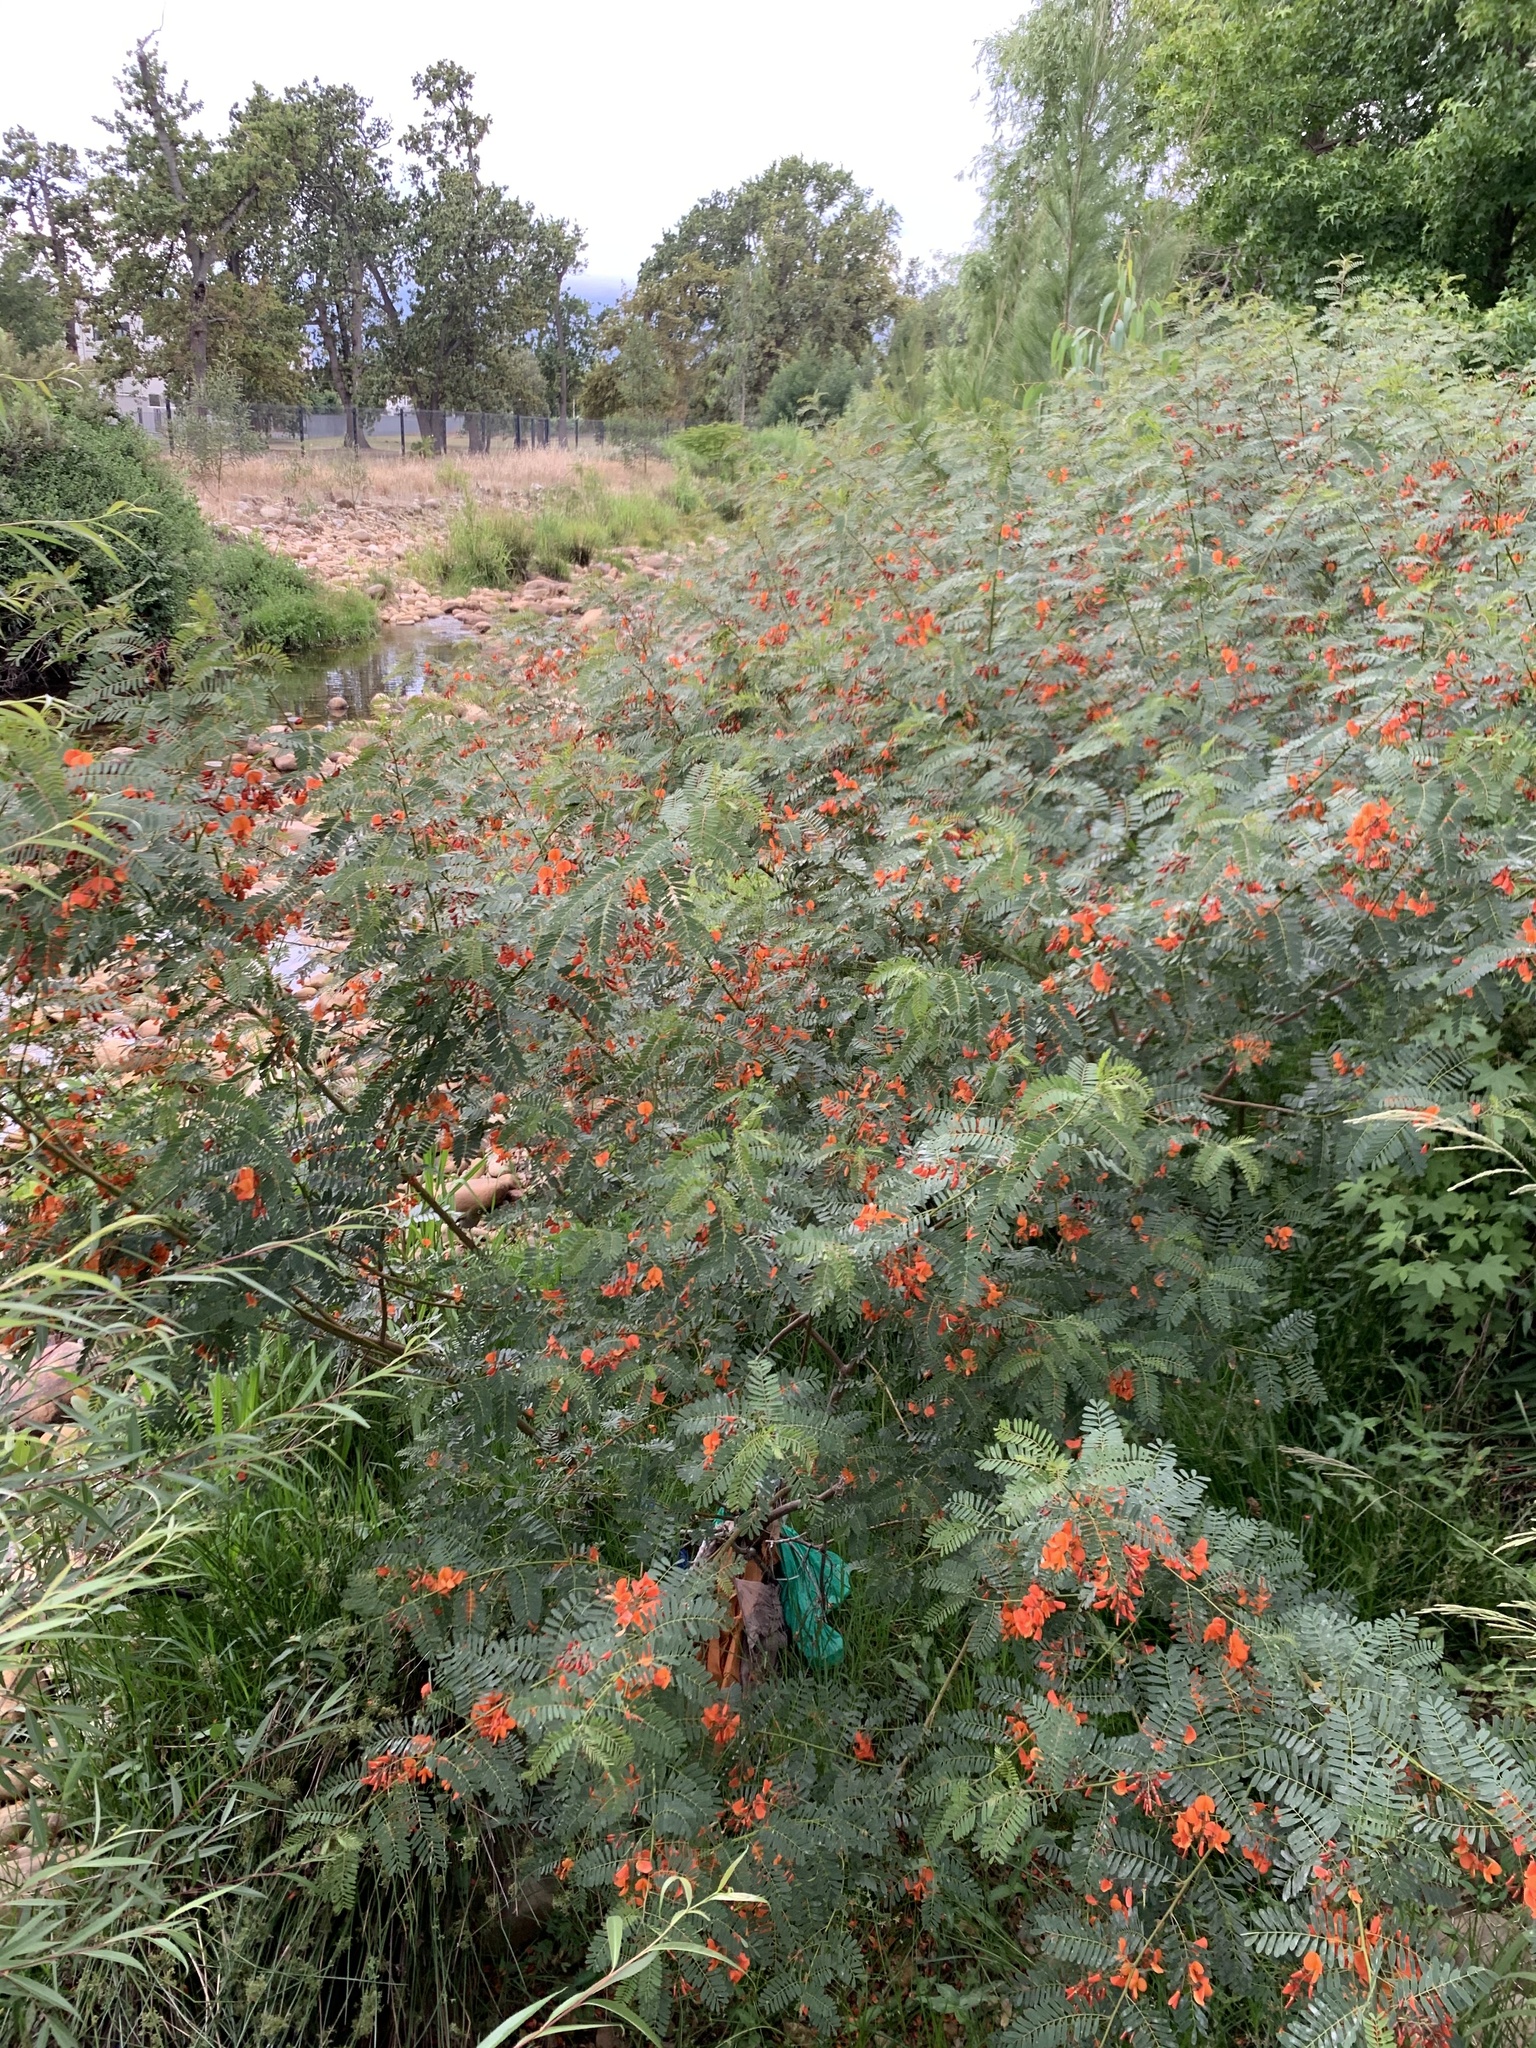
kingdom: Plantae
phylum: Tracheophyta
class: Magnoliopsida
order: Fabales
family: Fabaceae
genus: Sesbania
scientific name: Sesbania punicea
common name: Rattlebox
